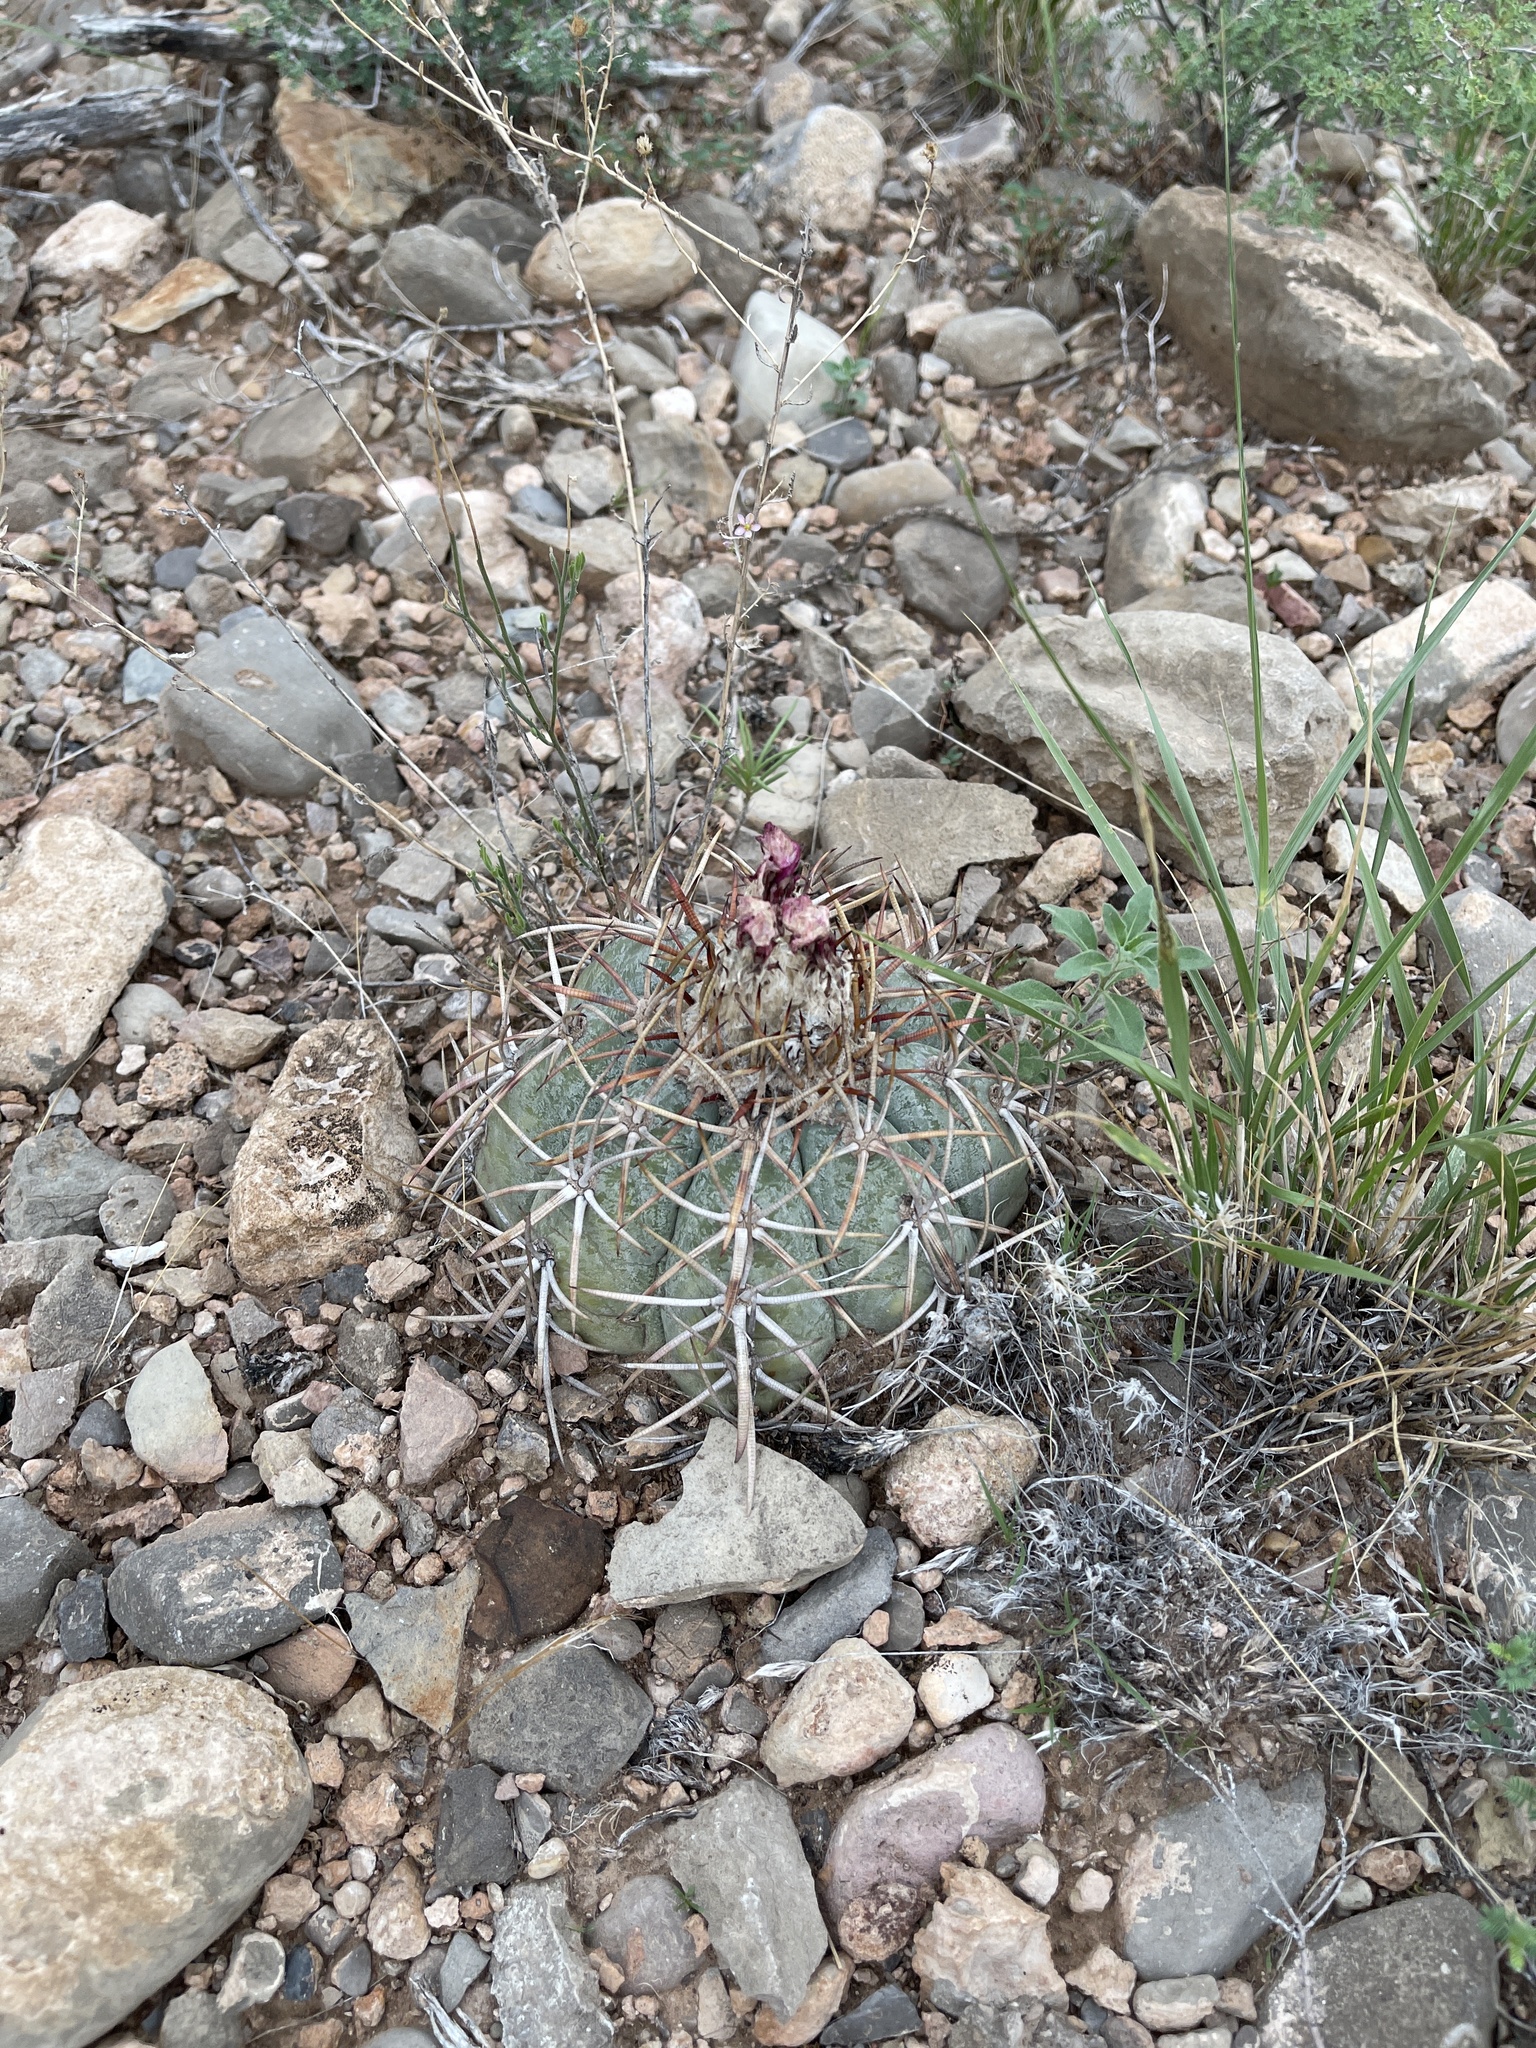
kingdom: Plantae
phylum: Tracheophyta
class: Magnoliopsida
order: Caryophyllales
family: Cactaceae
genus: Echinocactus
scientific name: Echinocactus horizonthalonius
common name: Devilshead
